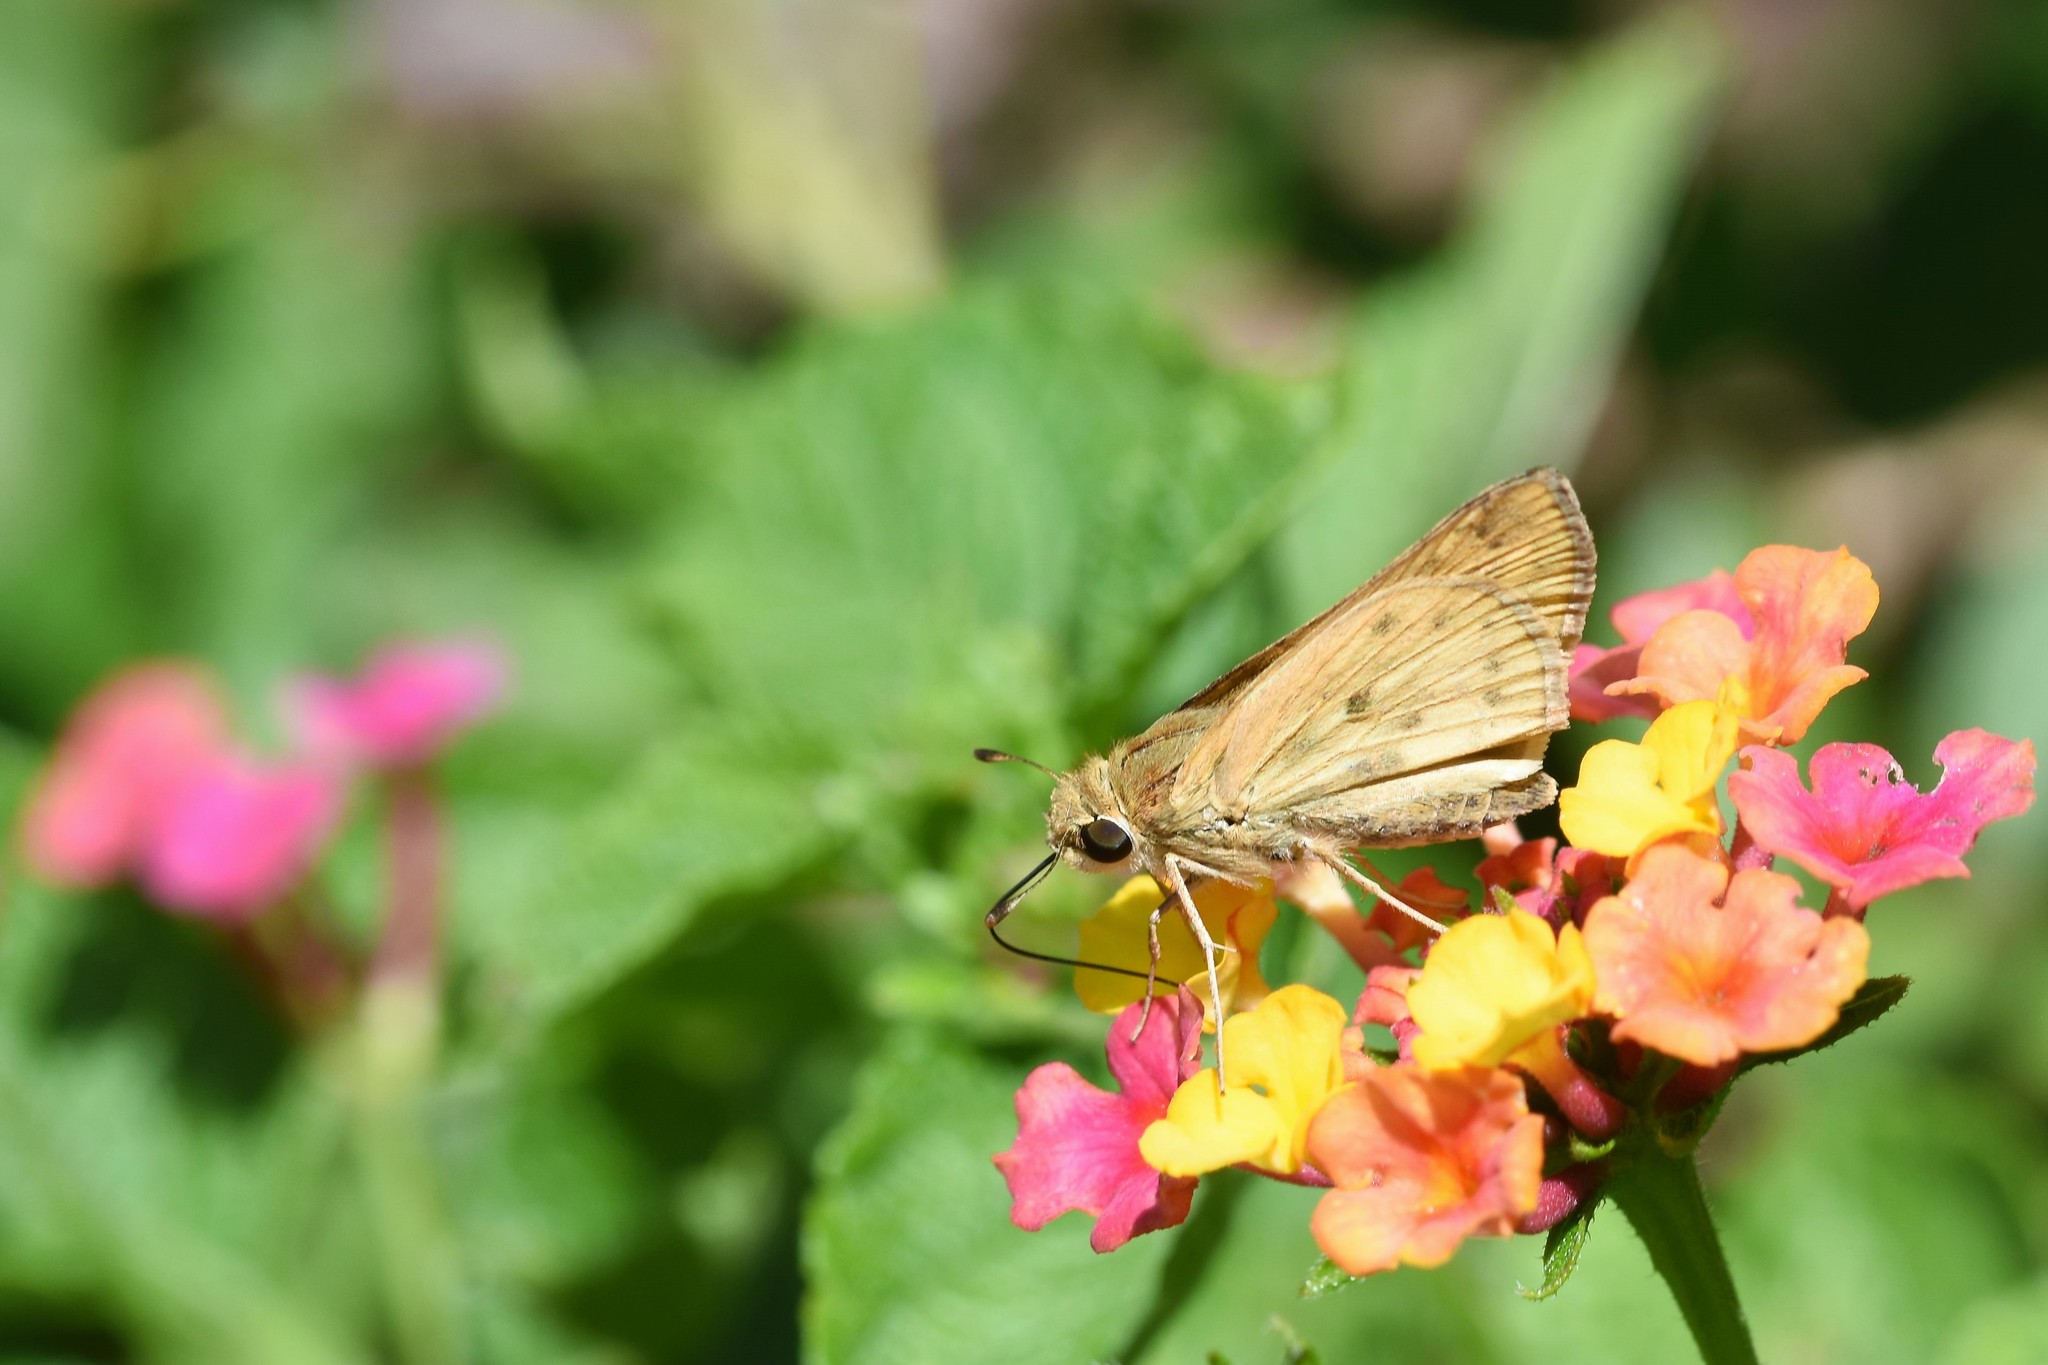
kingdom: Animalia
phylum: Arthropoda
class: Insecta
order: Lepidoptera
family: Hesperiidae
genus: Hylephila
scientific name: Hylephila phyleus
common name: Fiery skipper
